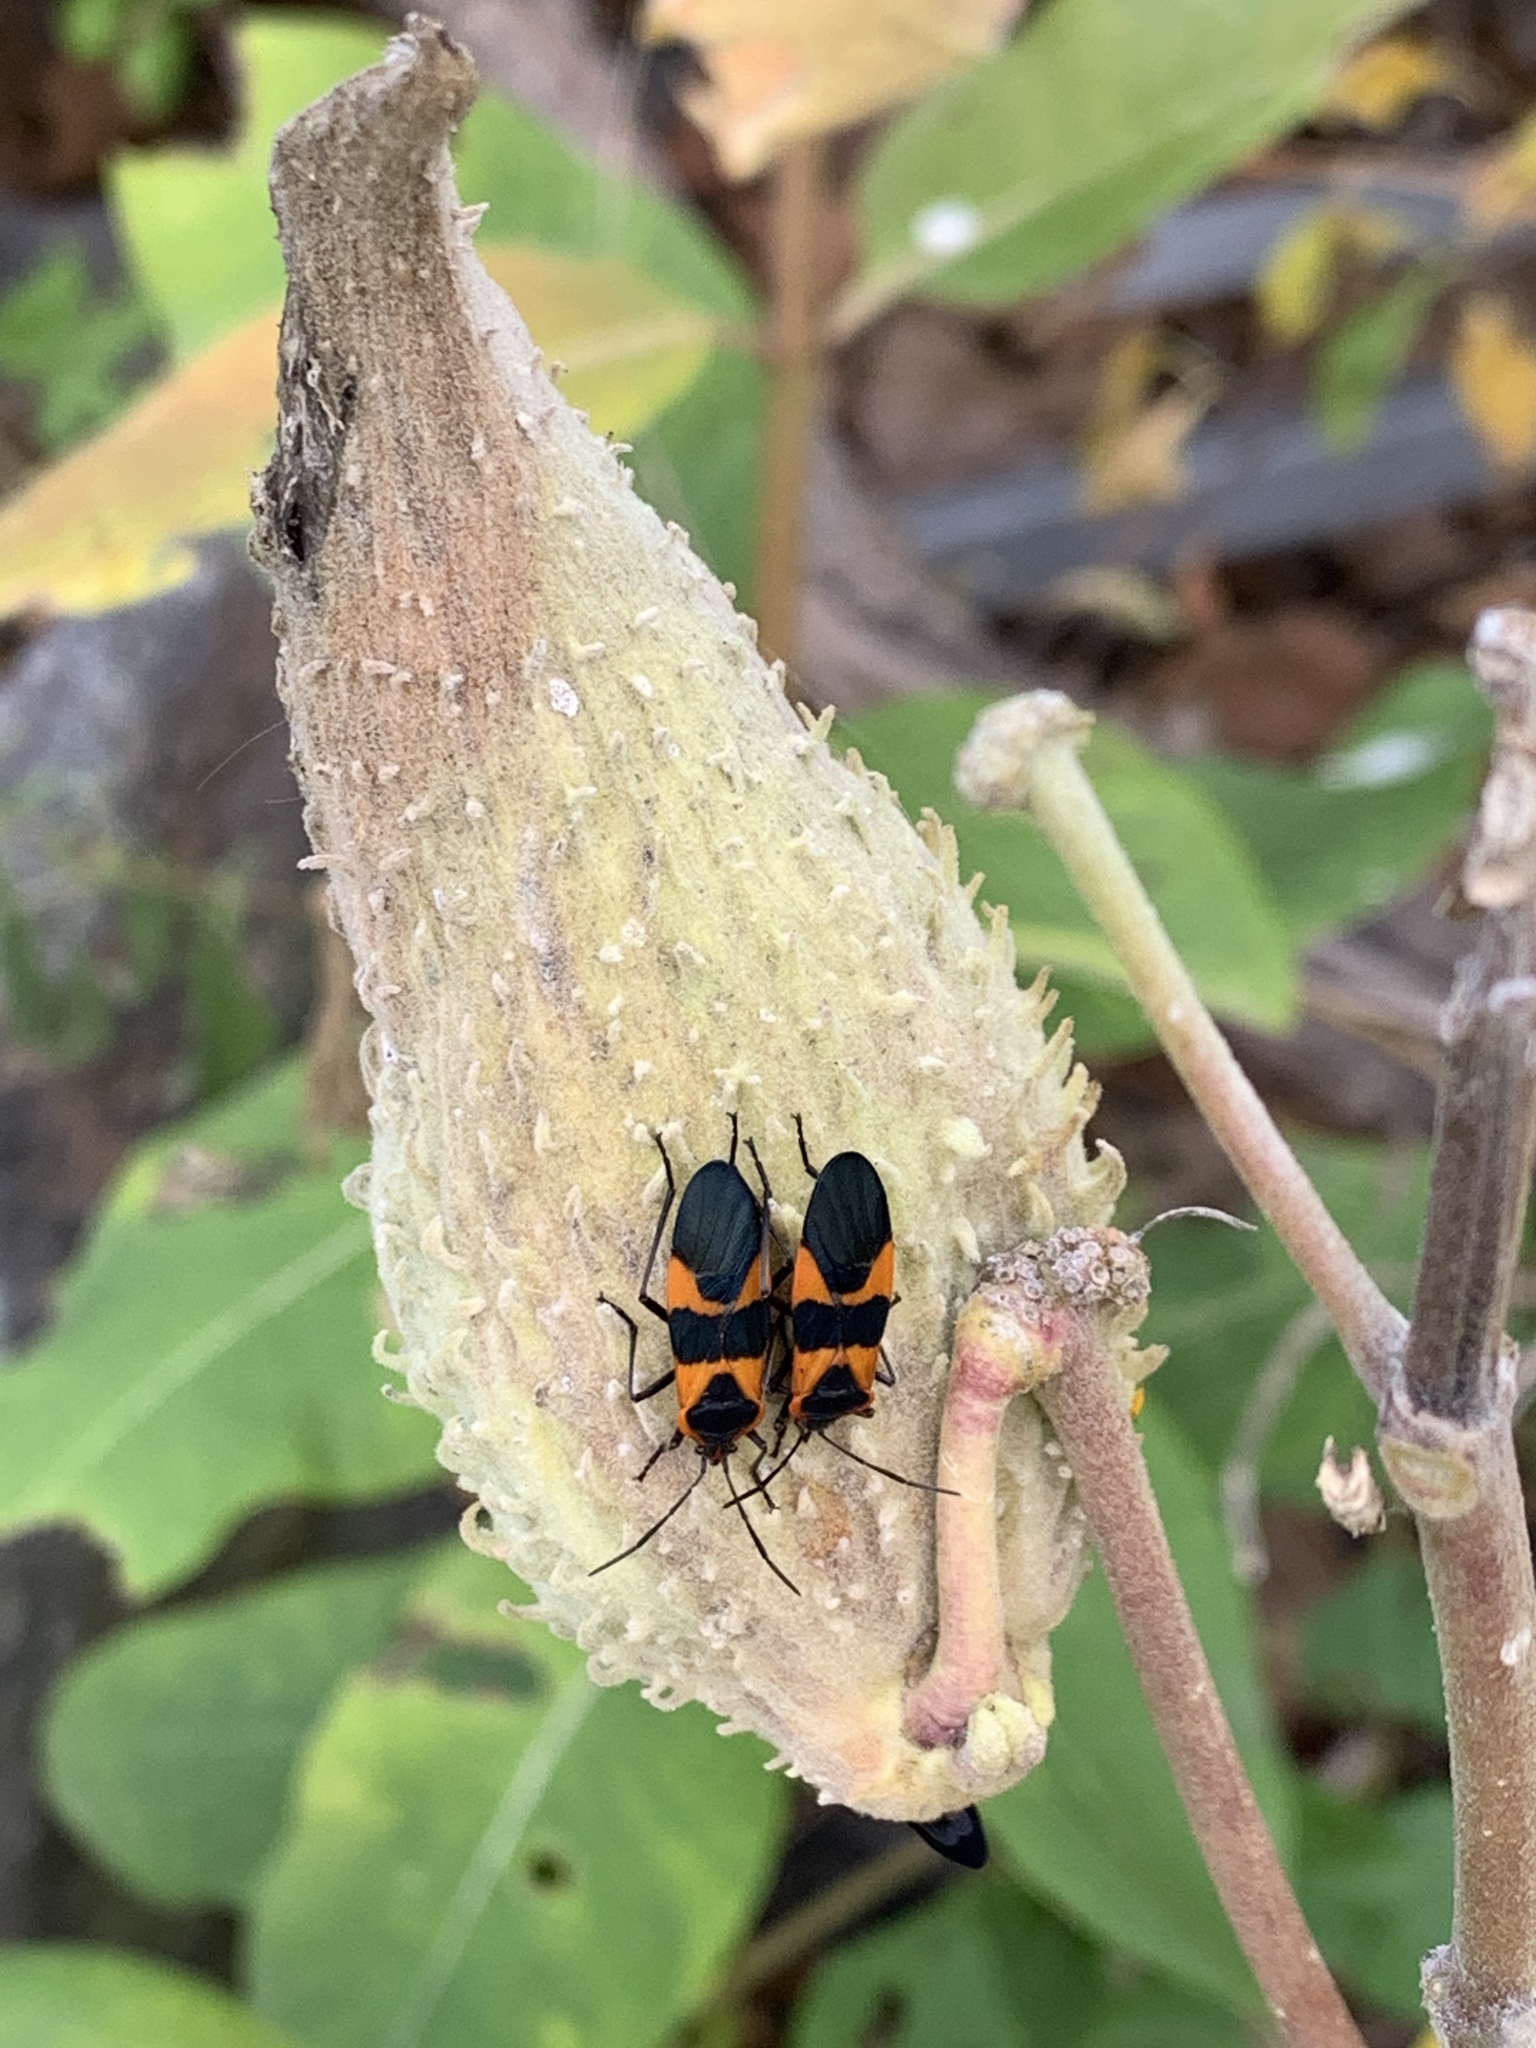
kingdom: Animalia
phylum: Arthropoda
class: Insecta
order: Hemiptera
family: Lygaeidae
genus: Oncopeltus
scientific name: Oncopeltus fasciatus
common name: Large milkweed bug
